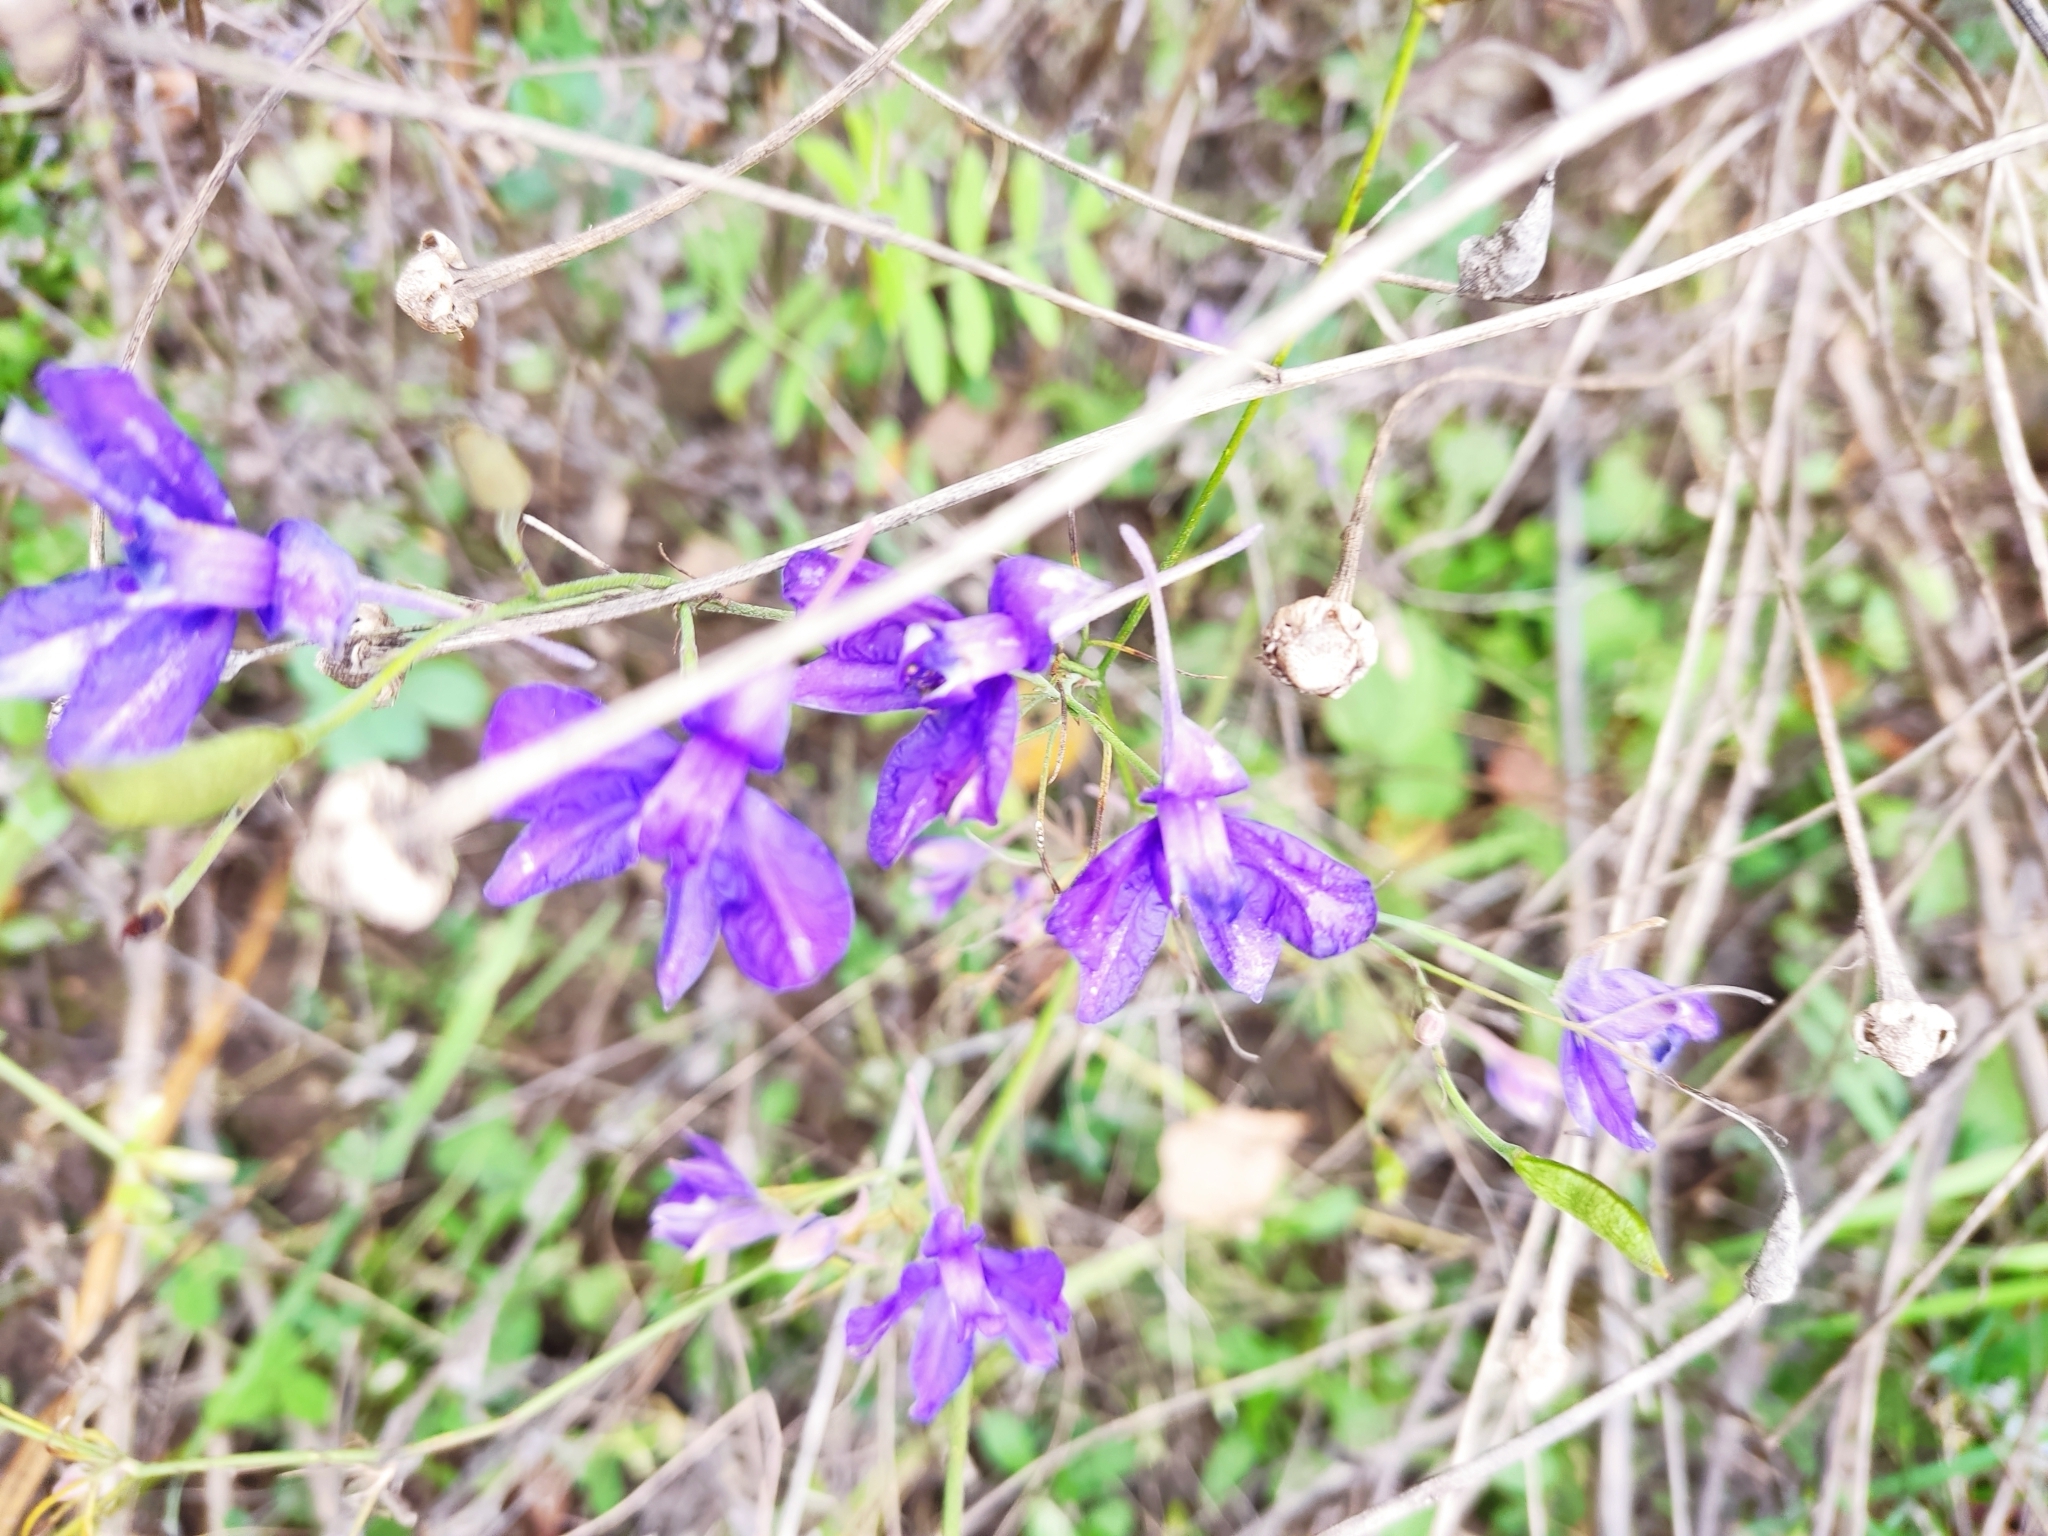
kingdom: Plantae
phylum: Tracheophyta
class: Magnoliopsida
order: Ranunculales
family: Ranunculaceae
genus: Delphinium
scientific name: Delphinium consolida
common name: Branching larkspur
